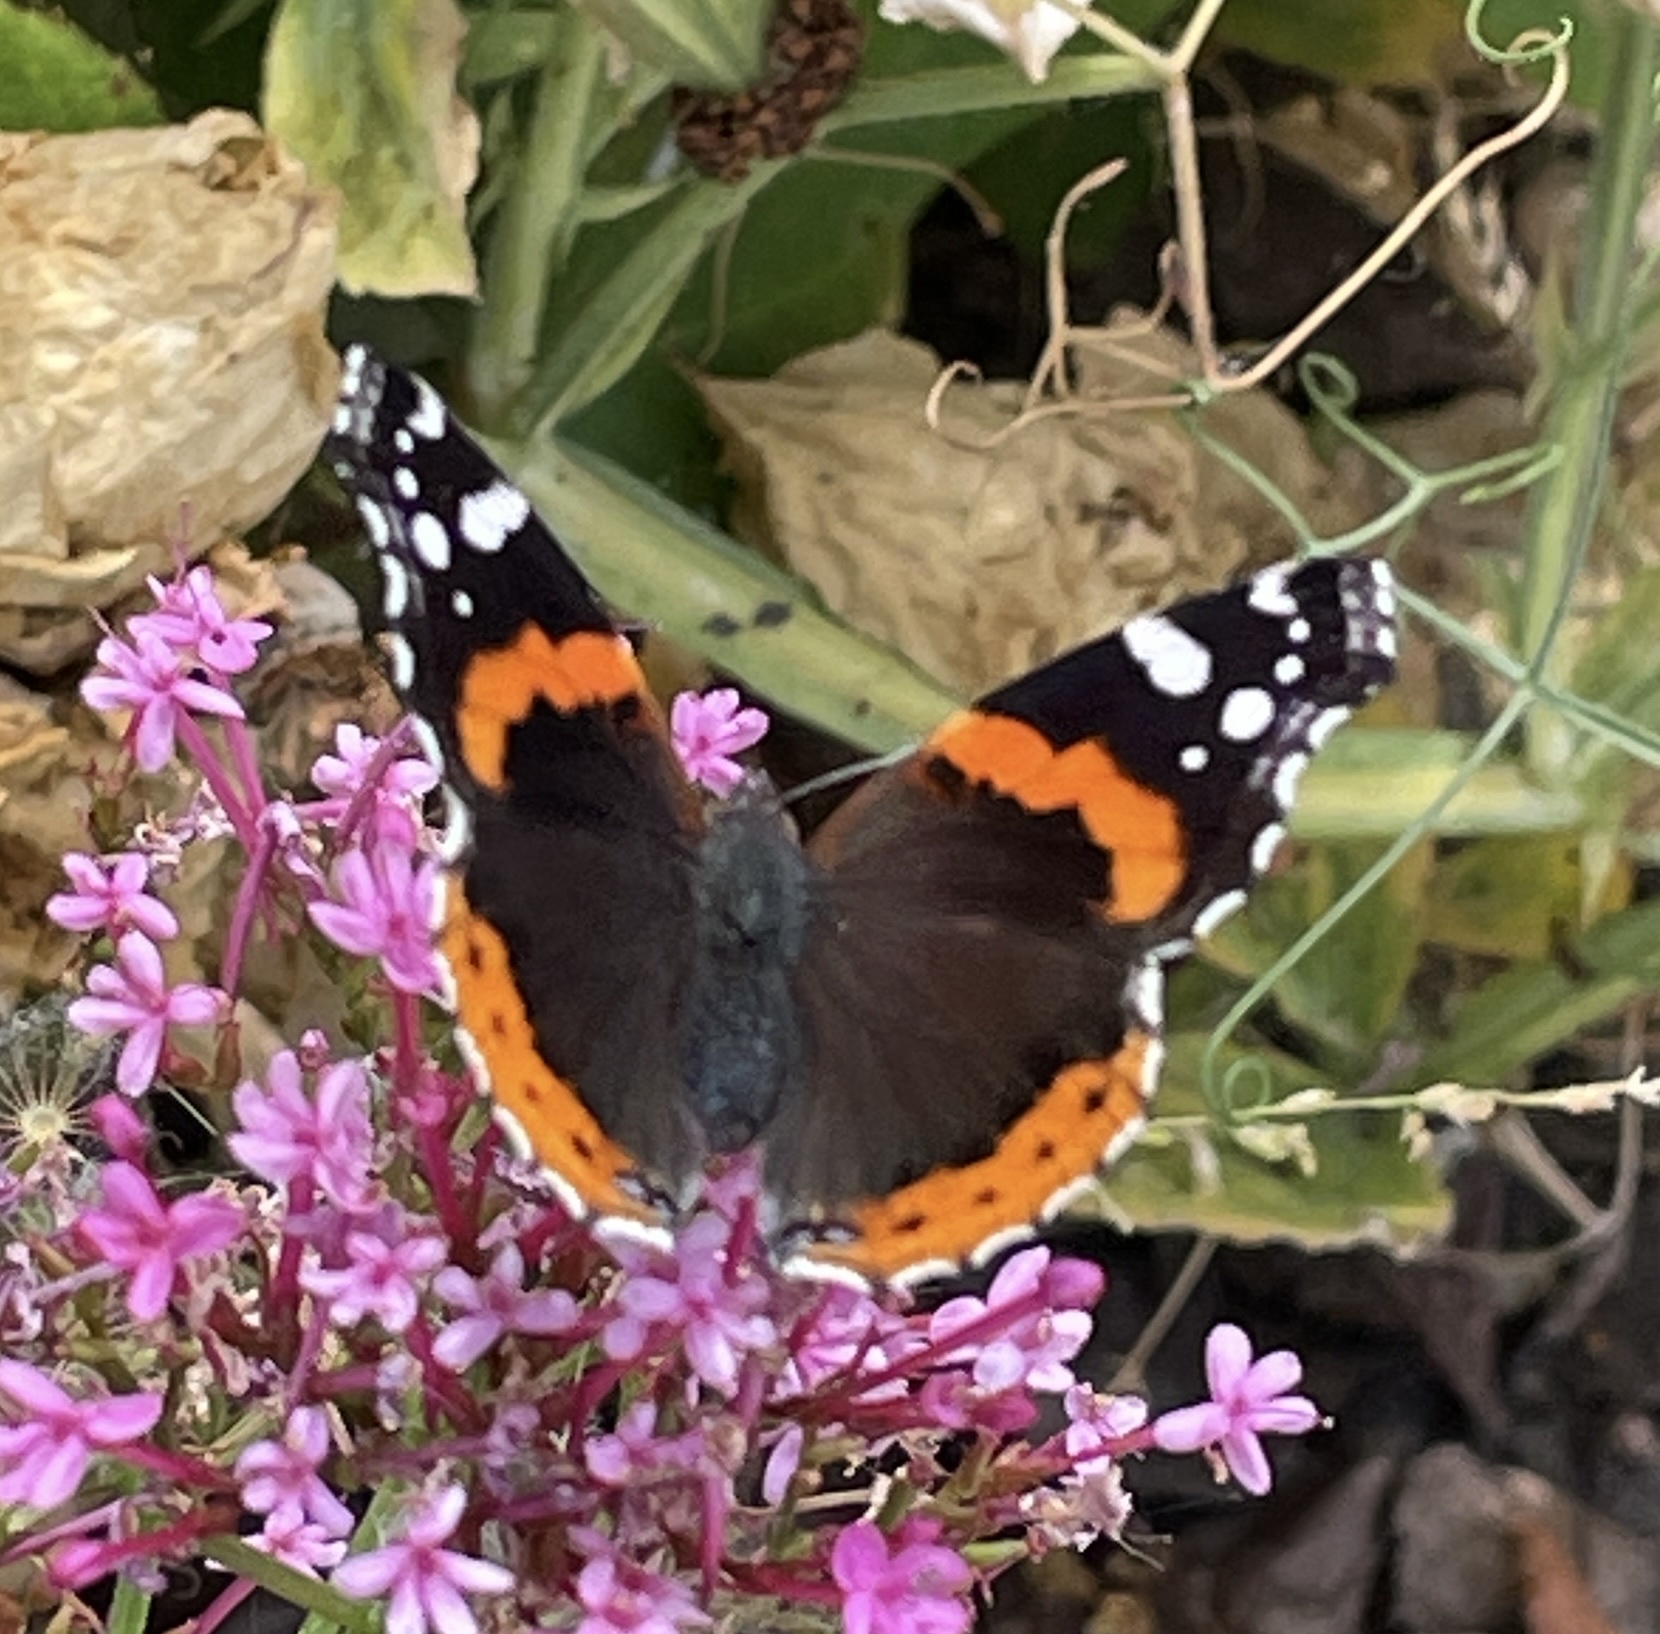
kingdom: Animalia
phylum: Arthropoda
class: Insecta
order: Lepidoptera
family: Nymphalidae
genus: Vanessa
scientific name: Vanessa atalanta
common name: Red admiral
